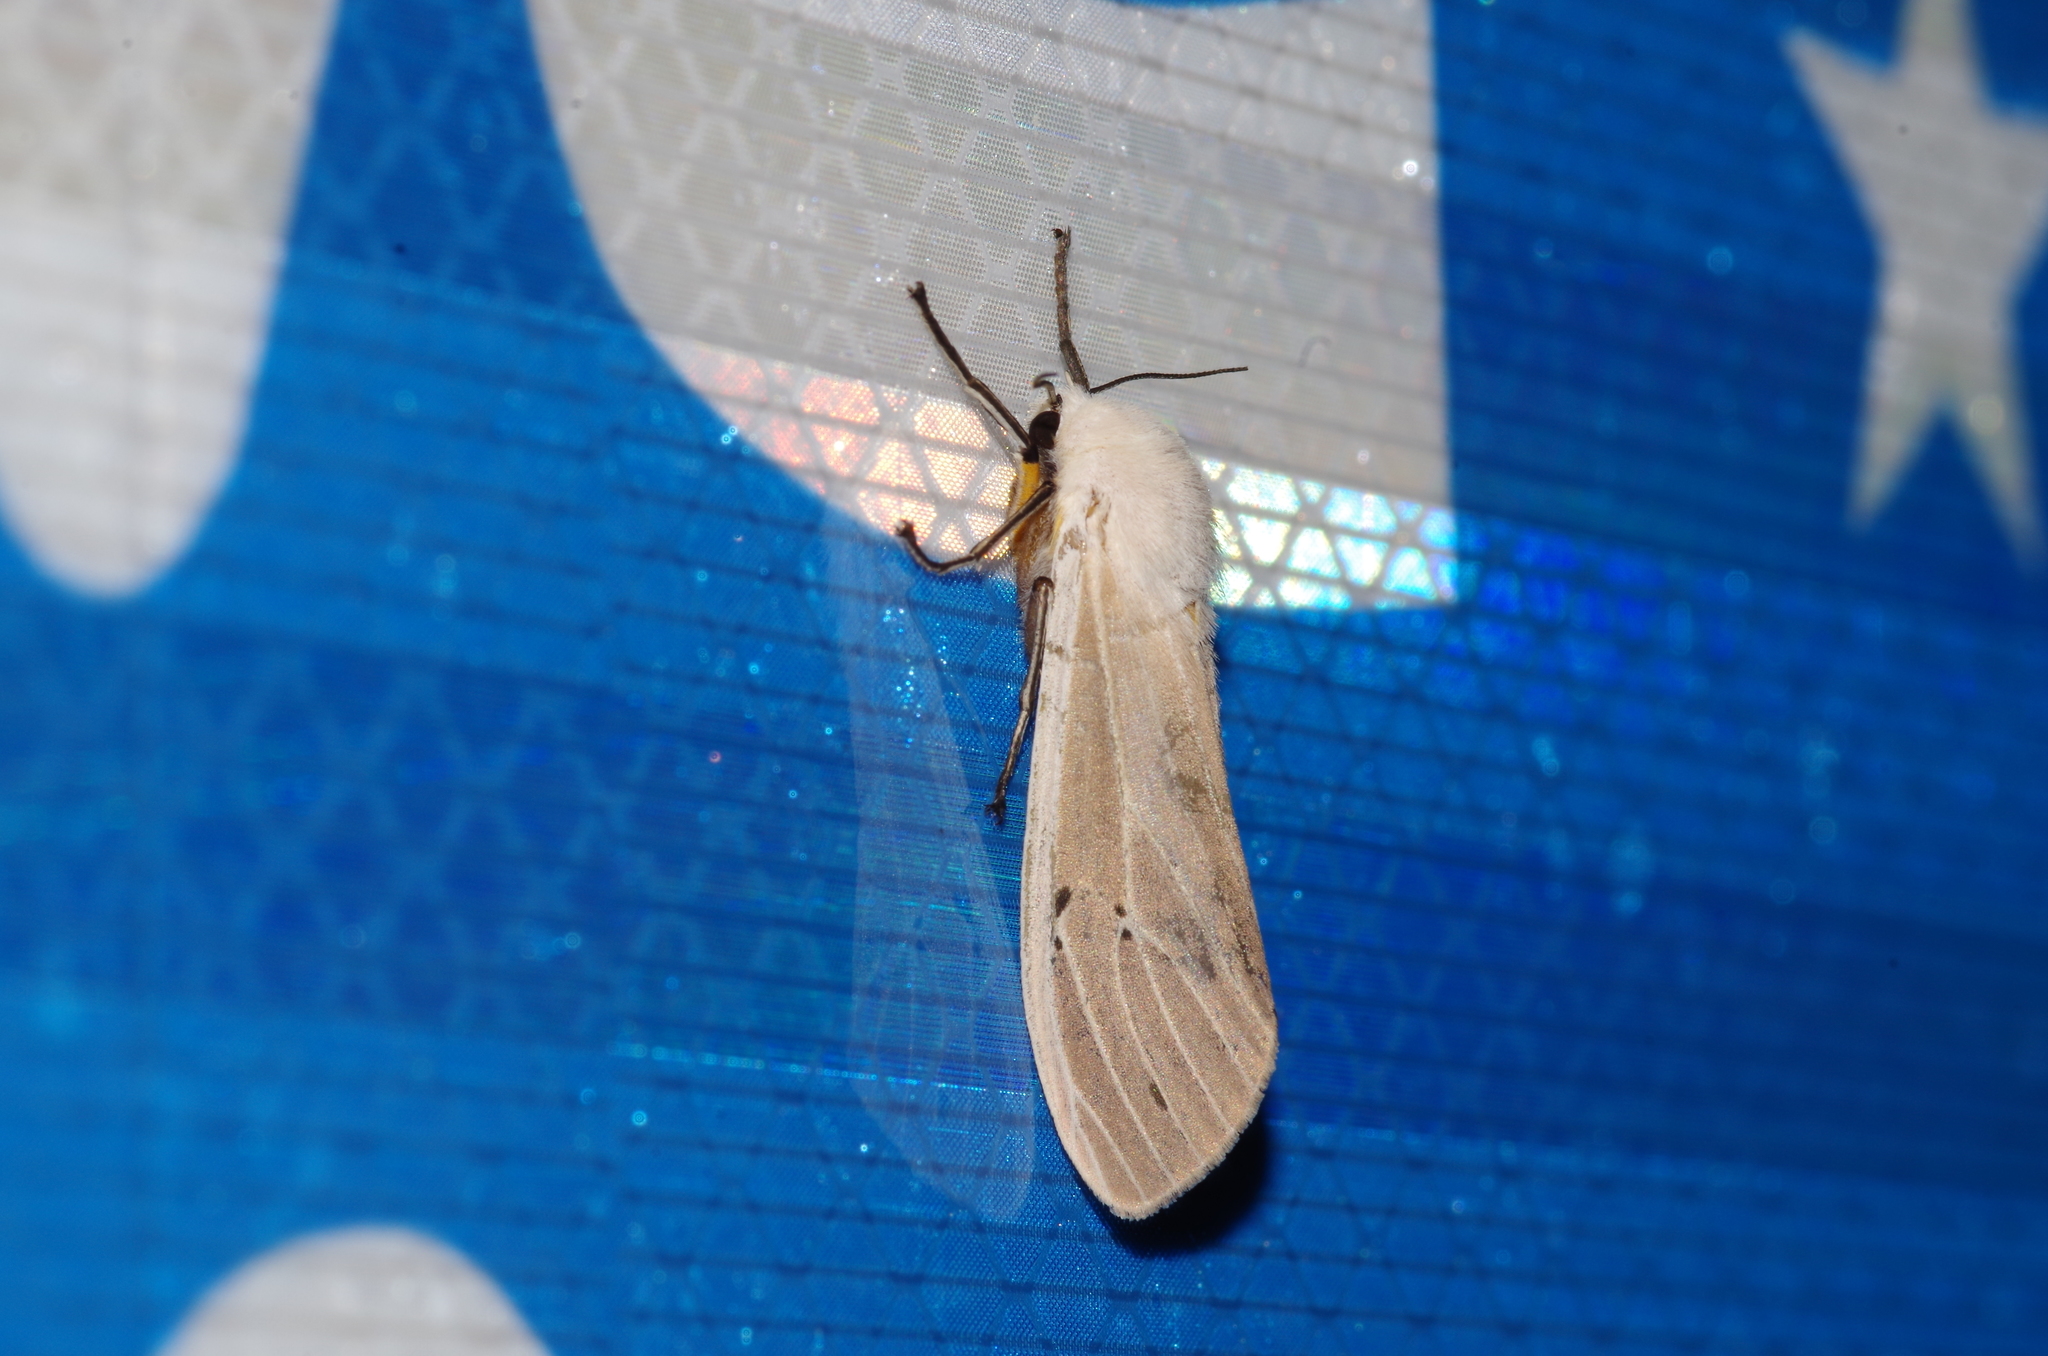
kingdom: Animalia
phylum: Arthropoda
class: Insecta
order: Lepidoptera
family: Erebidae
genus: Creatonotos
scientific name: Creatonotos transiens
